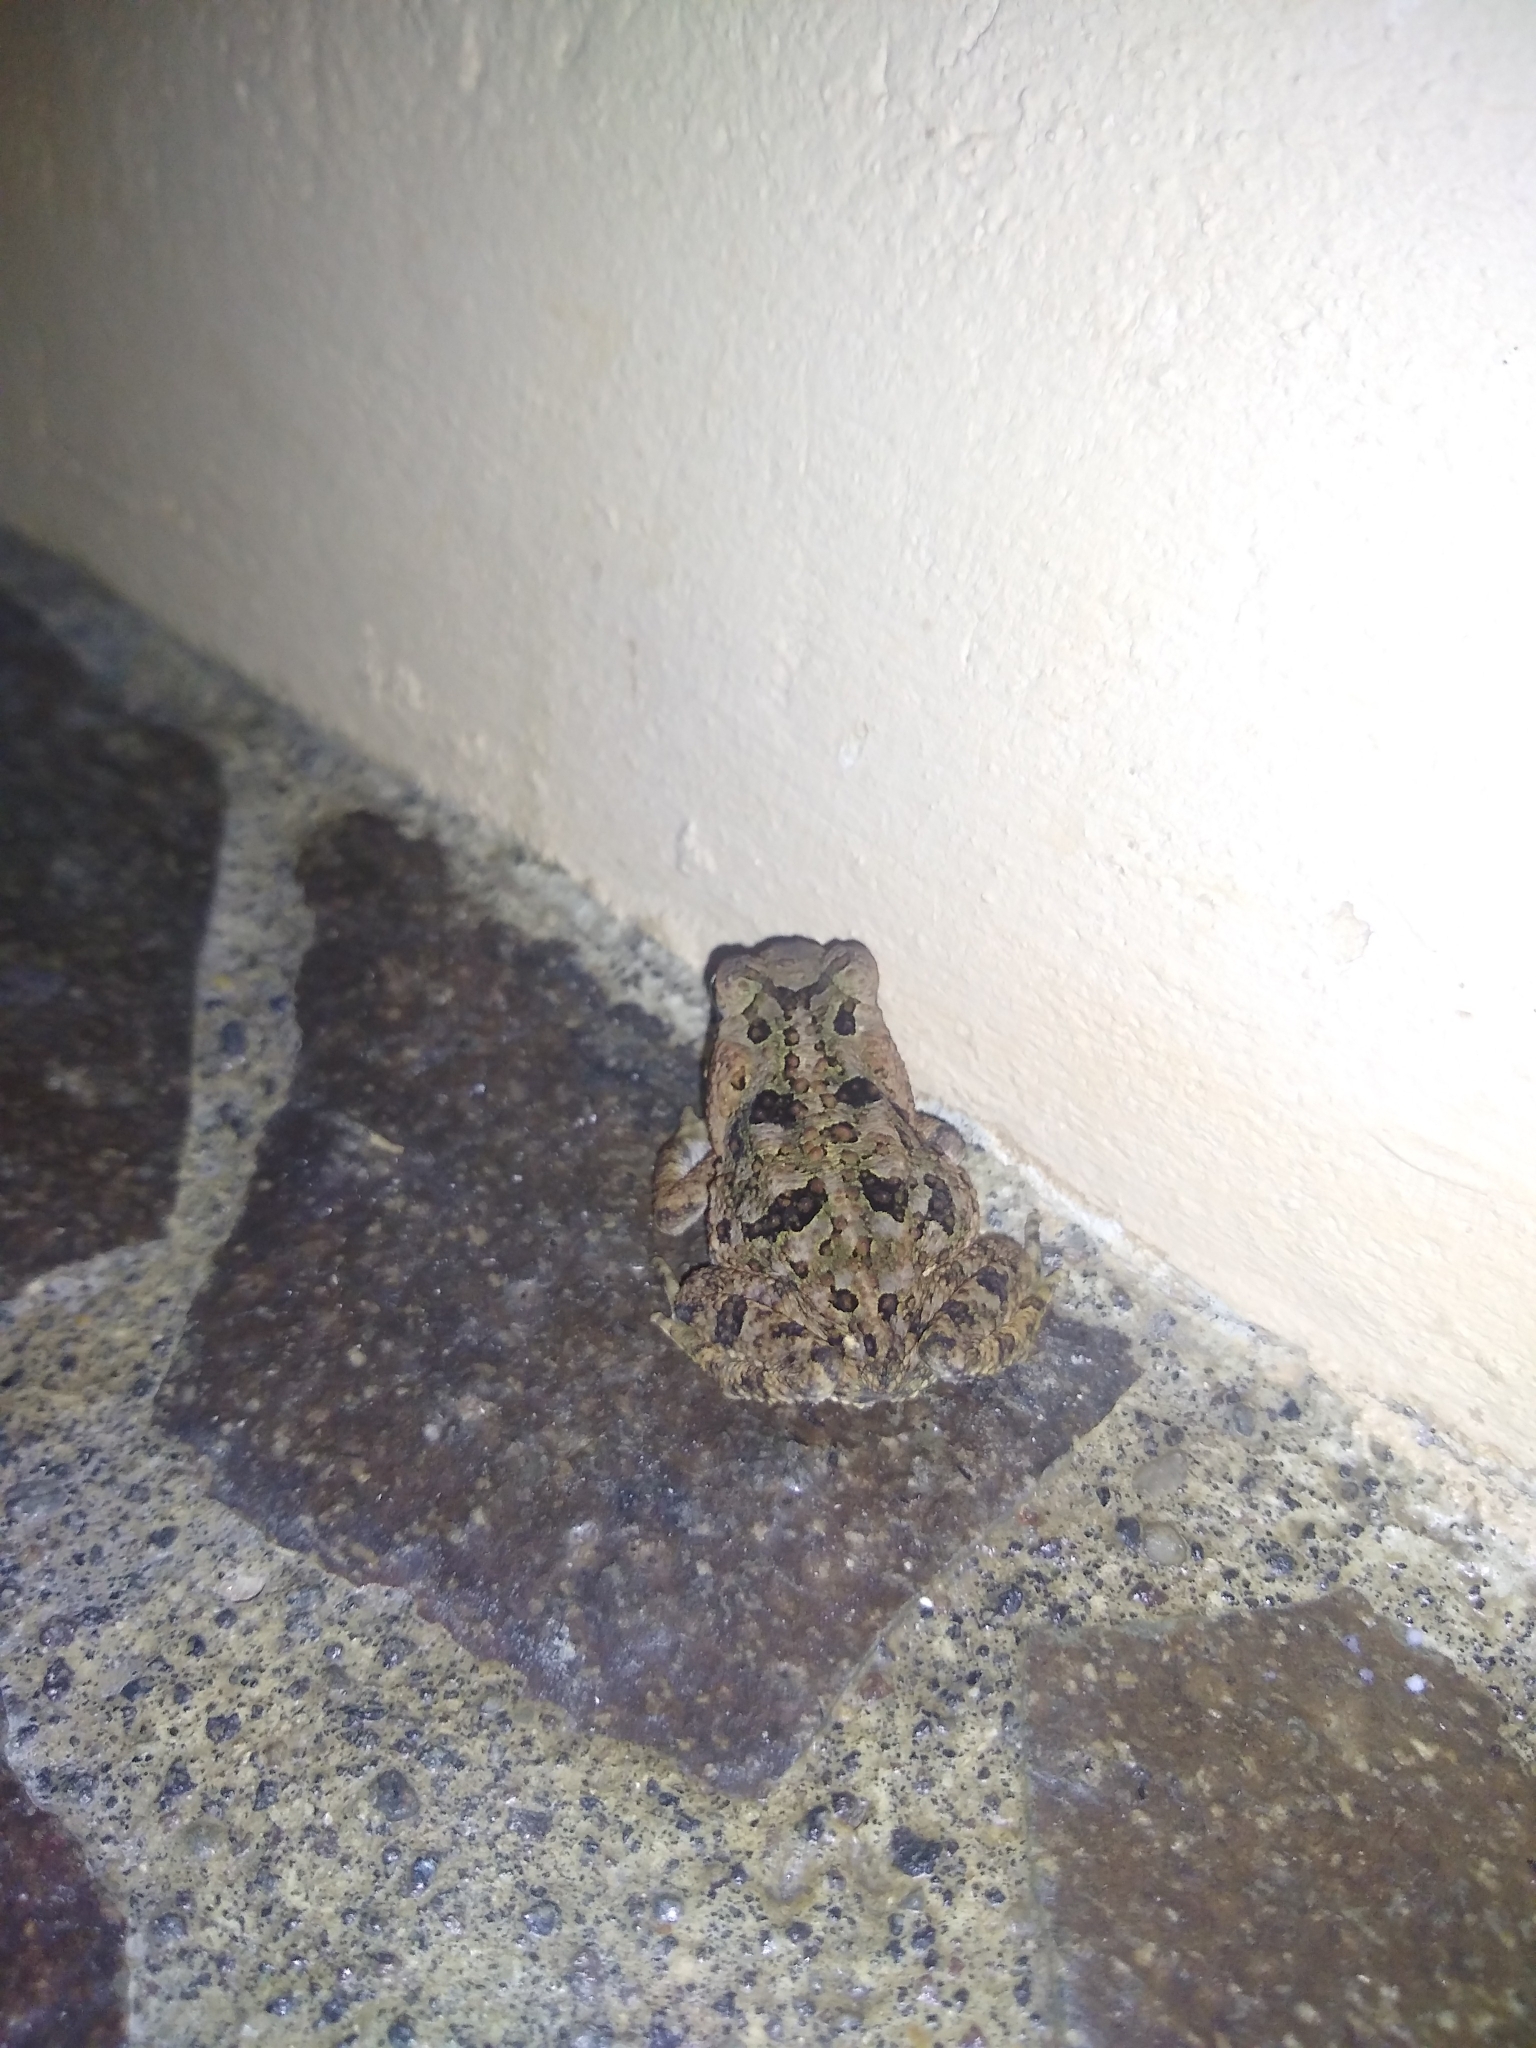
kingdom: Animalia
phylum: Chordata
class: Amphibia
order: Anura
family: Bufonidae
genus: Rhinella
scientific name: Rhinella horribilis
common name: Mesoamerican cane toad
